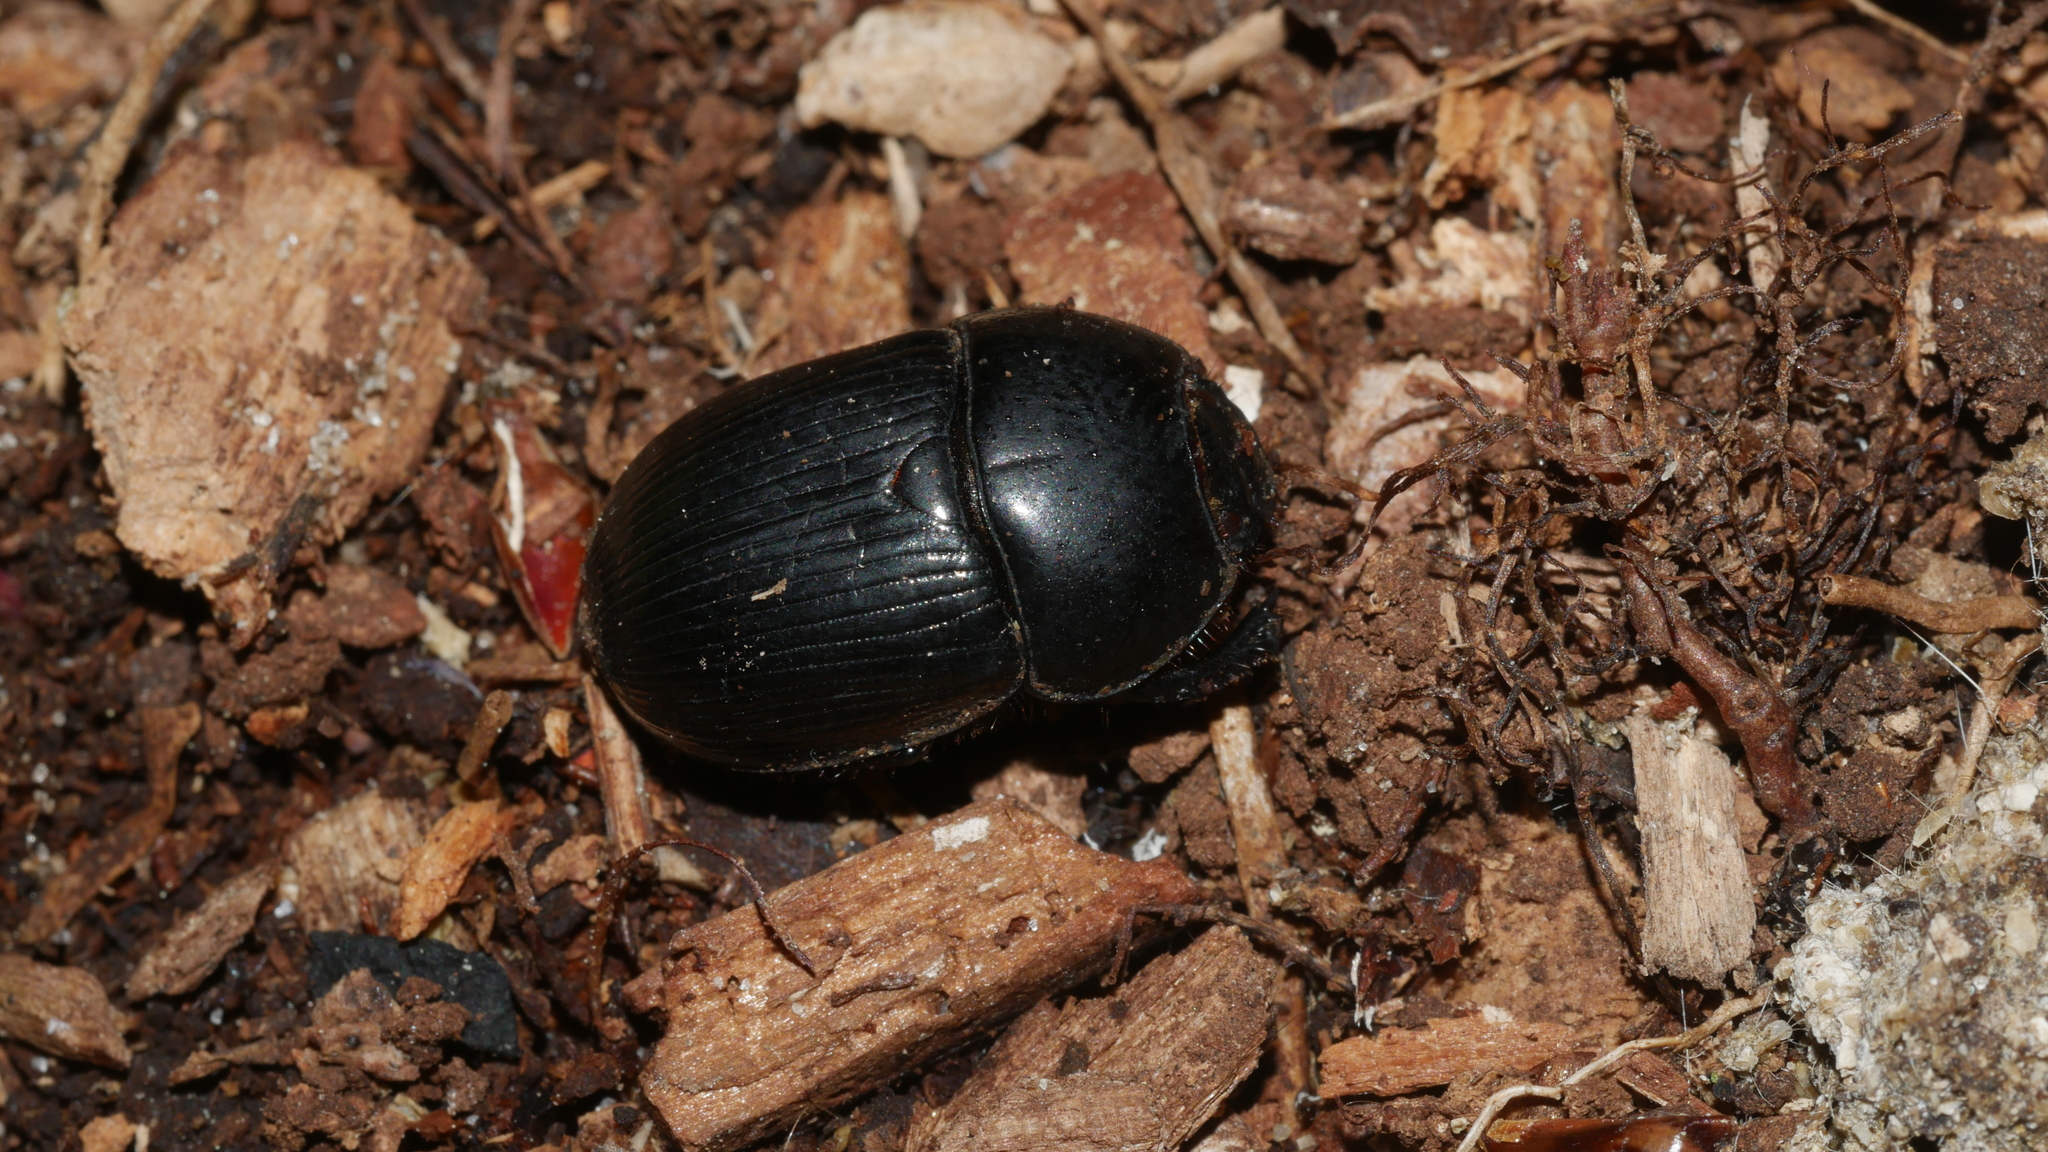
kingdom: Animalia
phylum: Arthropoda
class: Insecta
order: Coleoptera
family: Geotrupidae
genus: Cnemotrupes
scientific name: Cnemotrupes semiopacus
